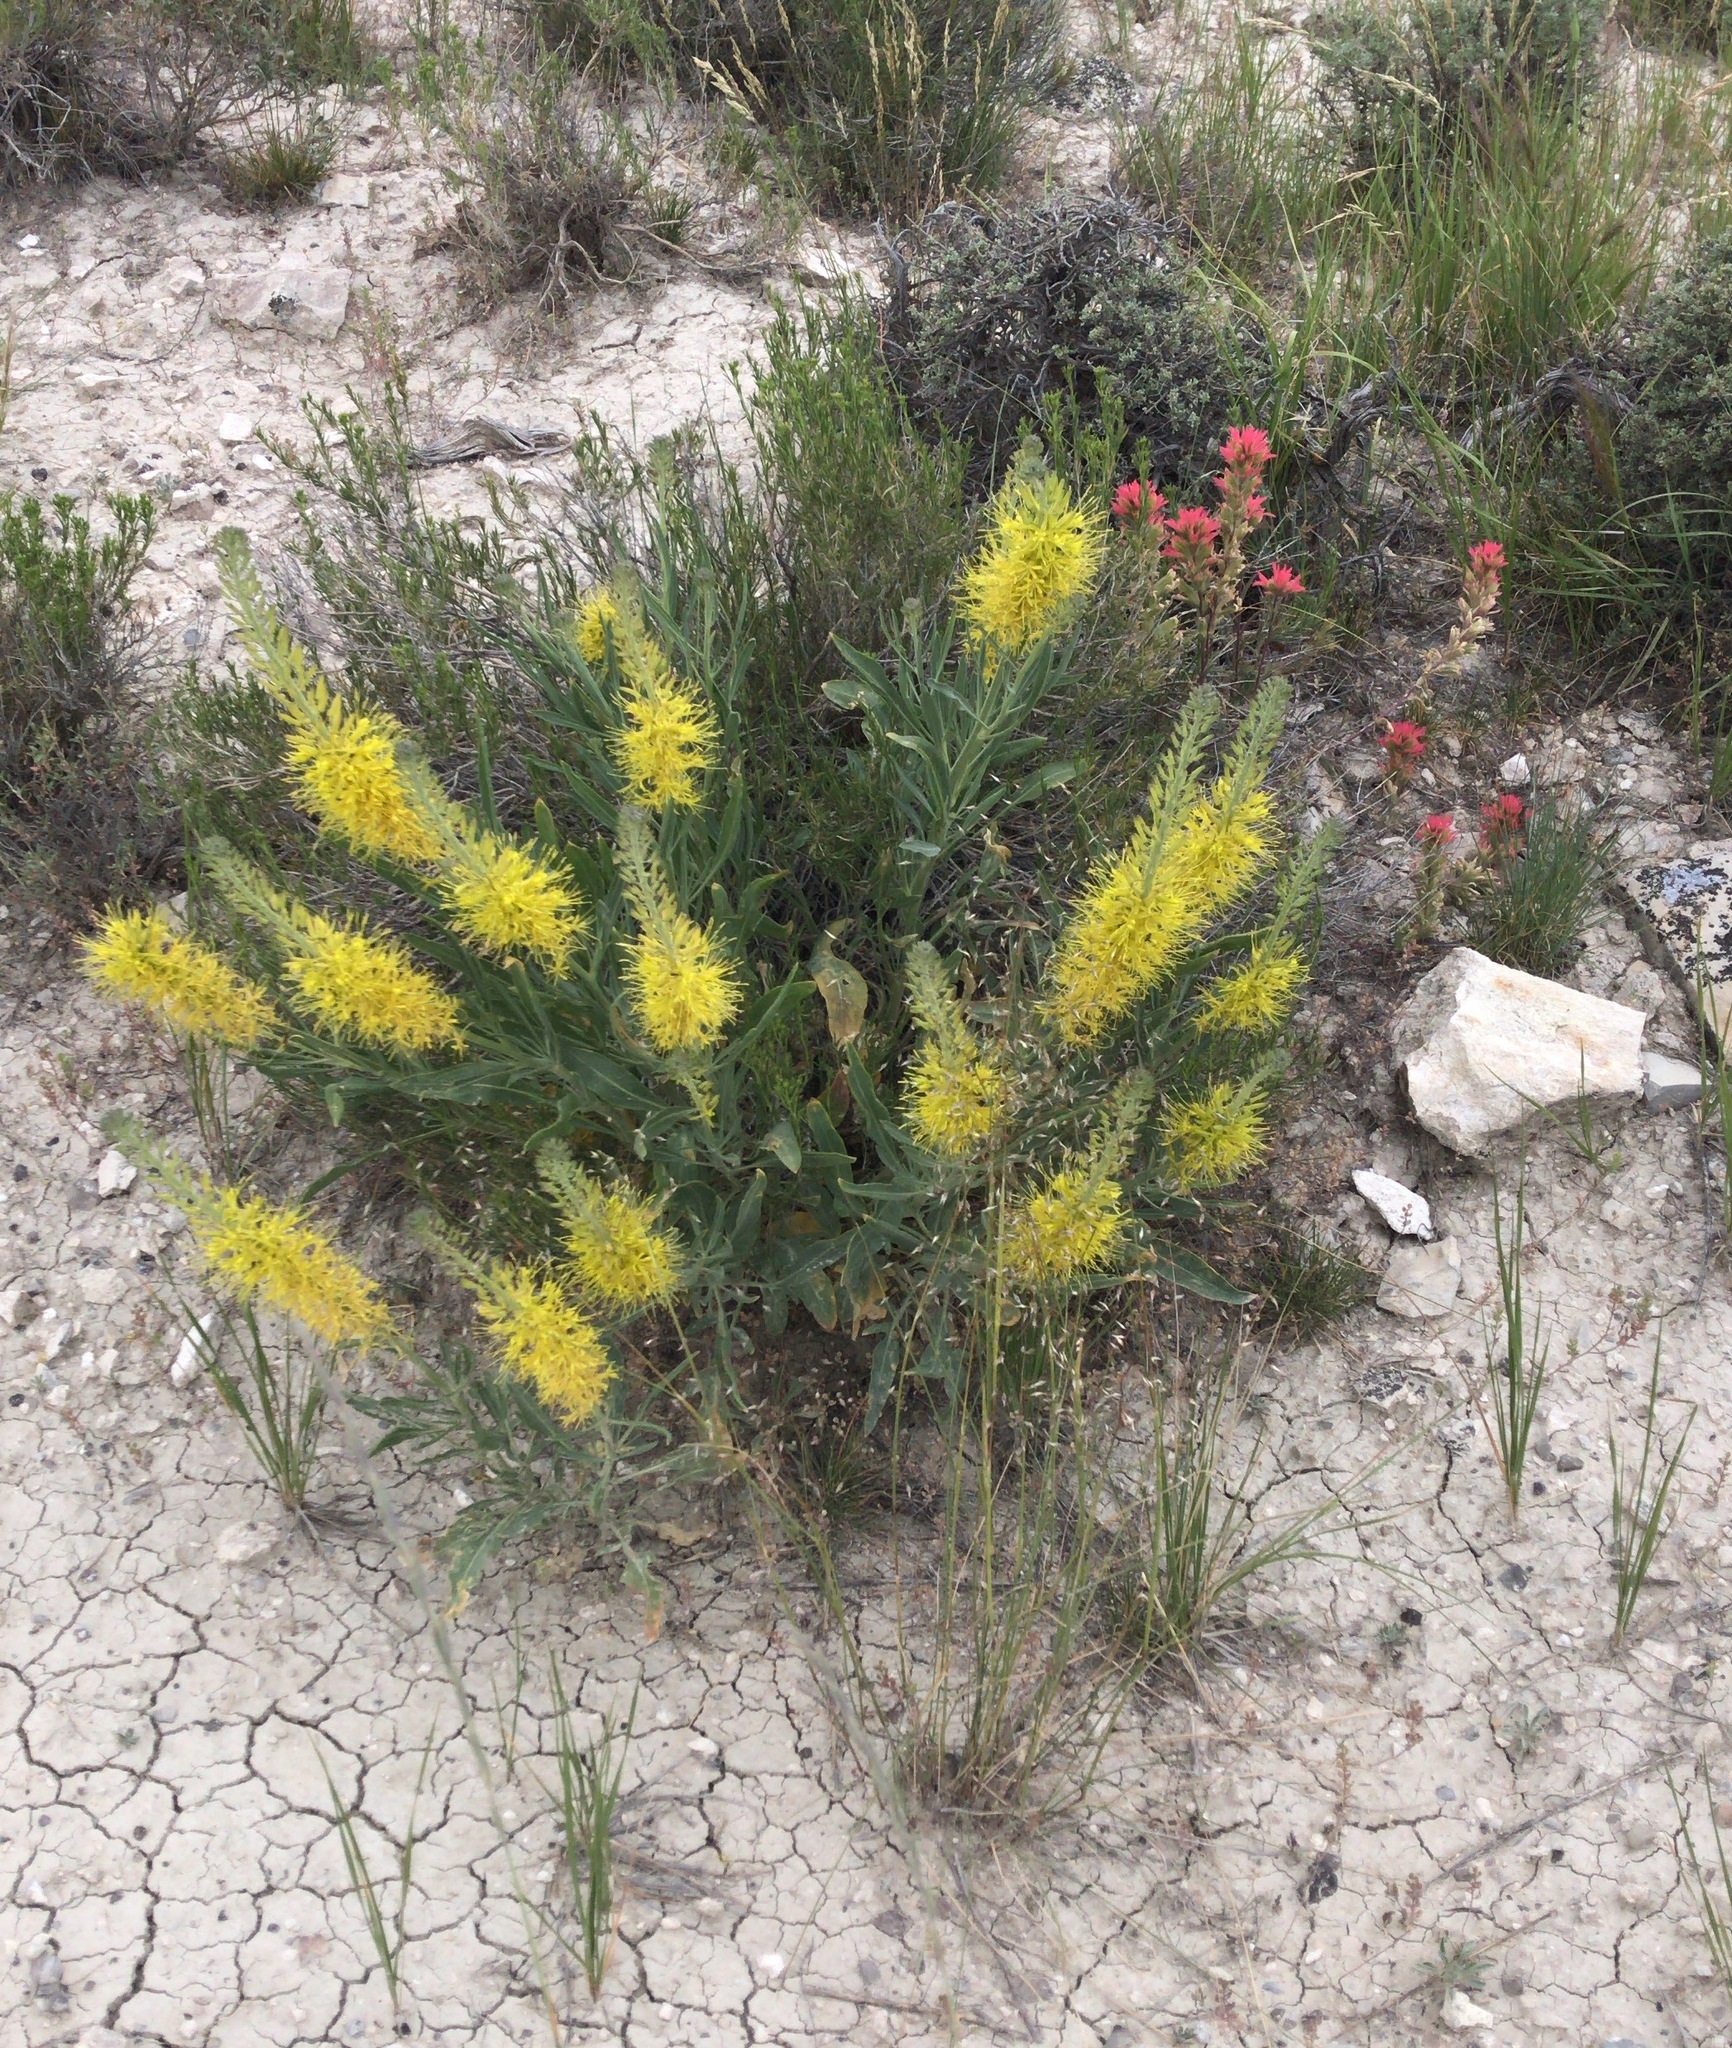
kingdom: Plantae
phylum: Tracheophyta
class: Magnoliopsida
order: Brassicales
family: Brassicaceae
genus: Stanleya
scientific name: Stanleya pinnata
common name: Prince's-plume
